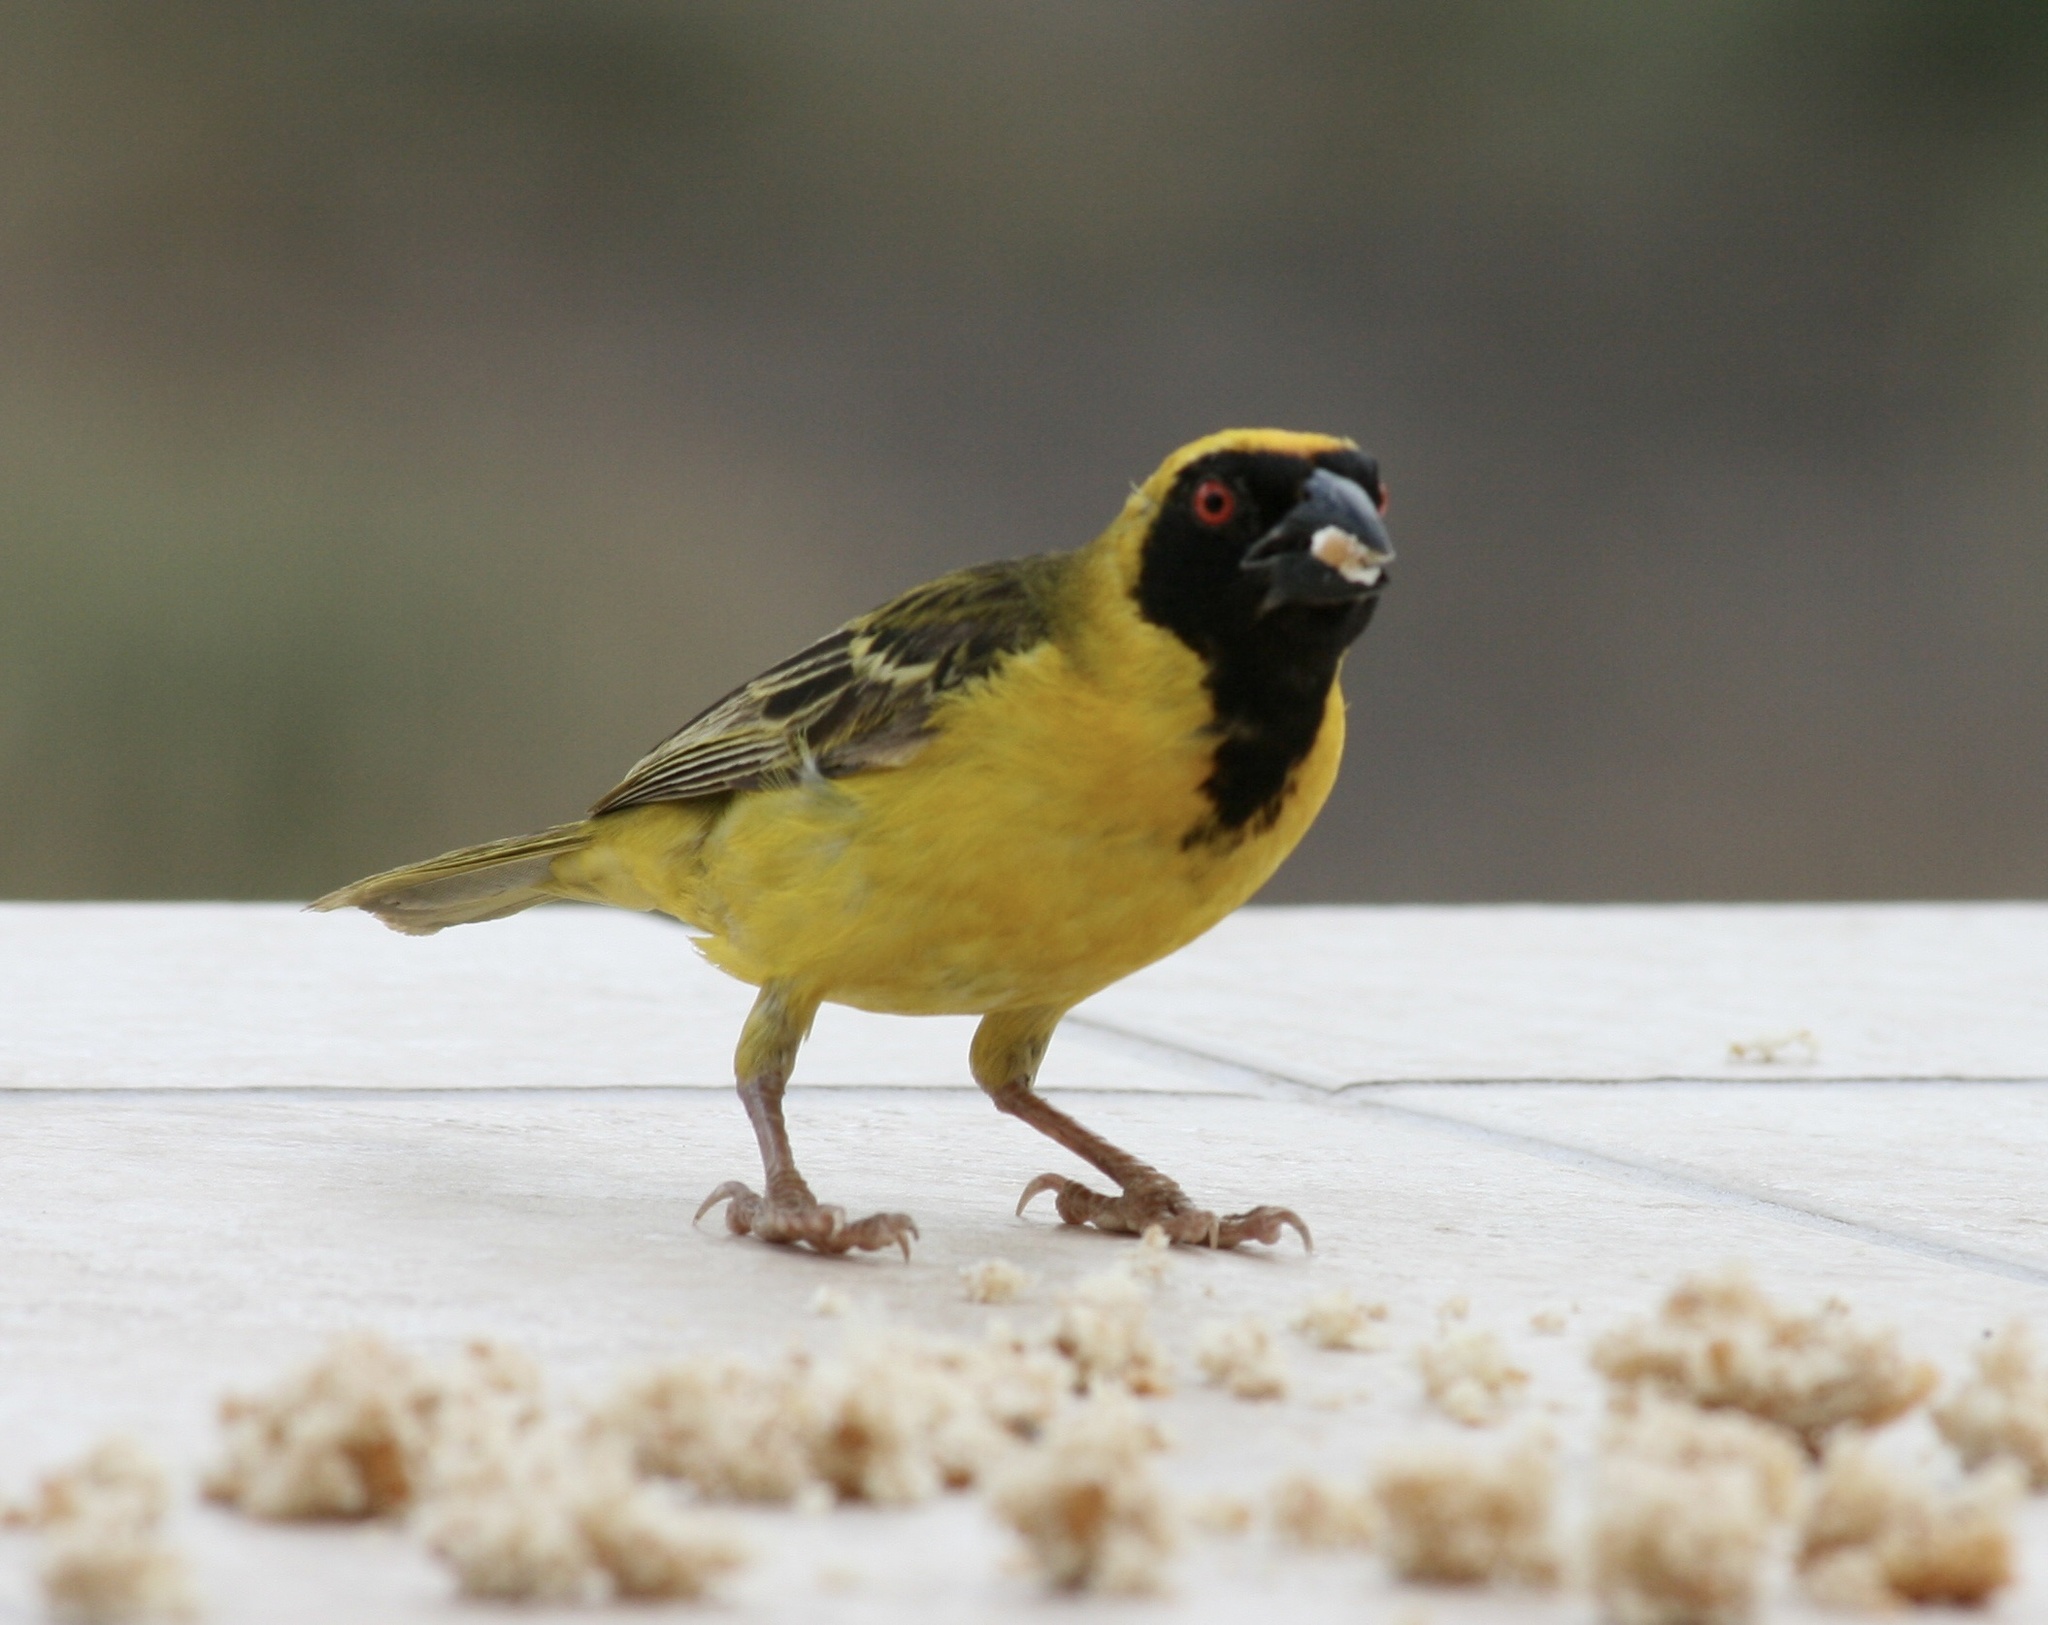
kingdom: Animalia
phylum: Chordata
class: Aves
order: Passeriformes
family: Ploceidae
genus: Ploceus
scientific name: Ploceus velatus
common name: Southern masked weaver
